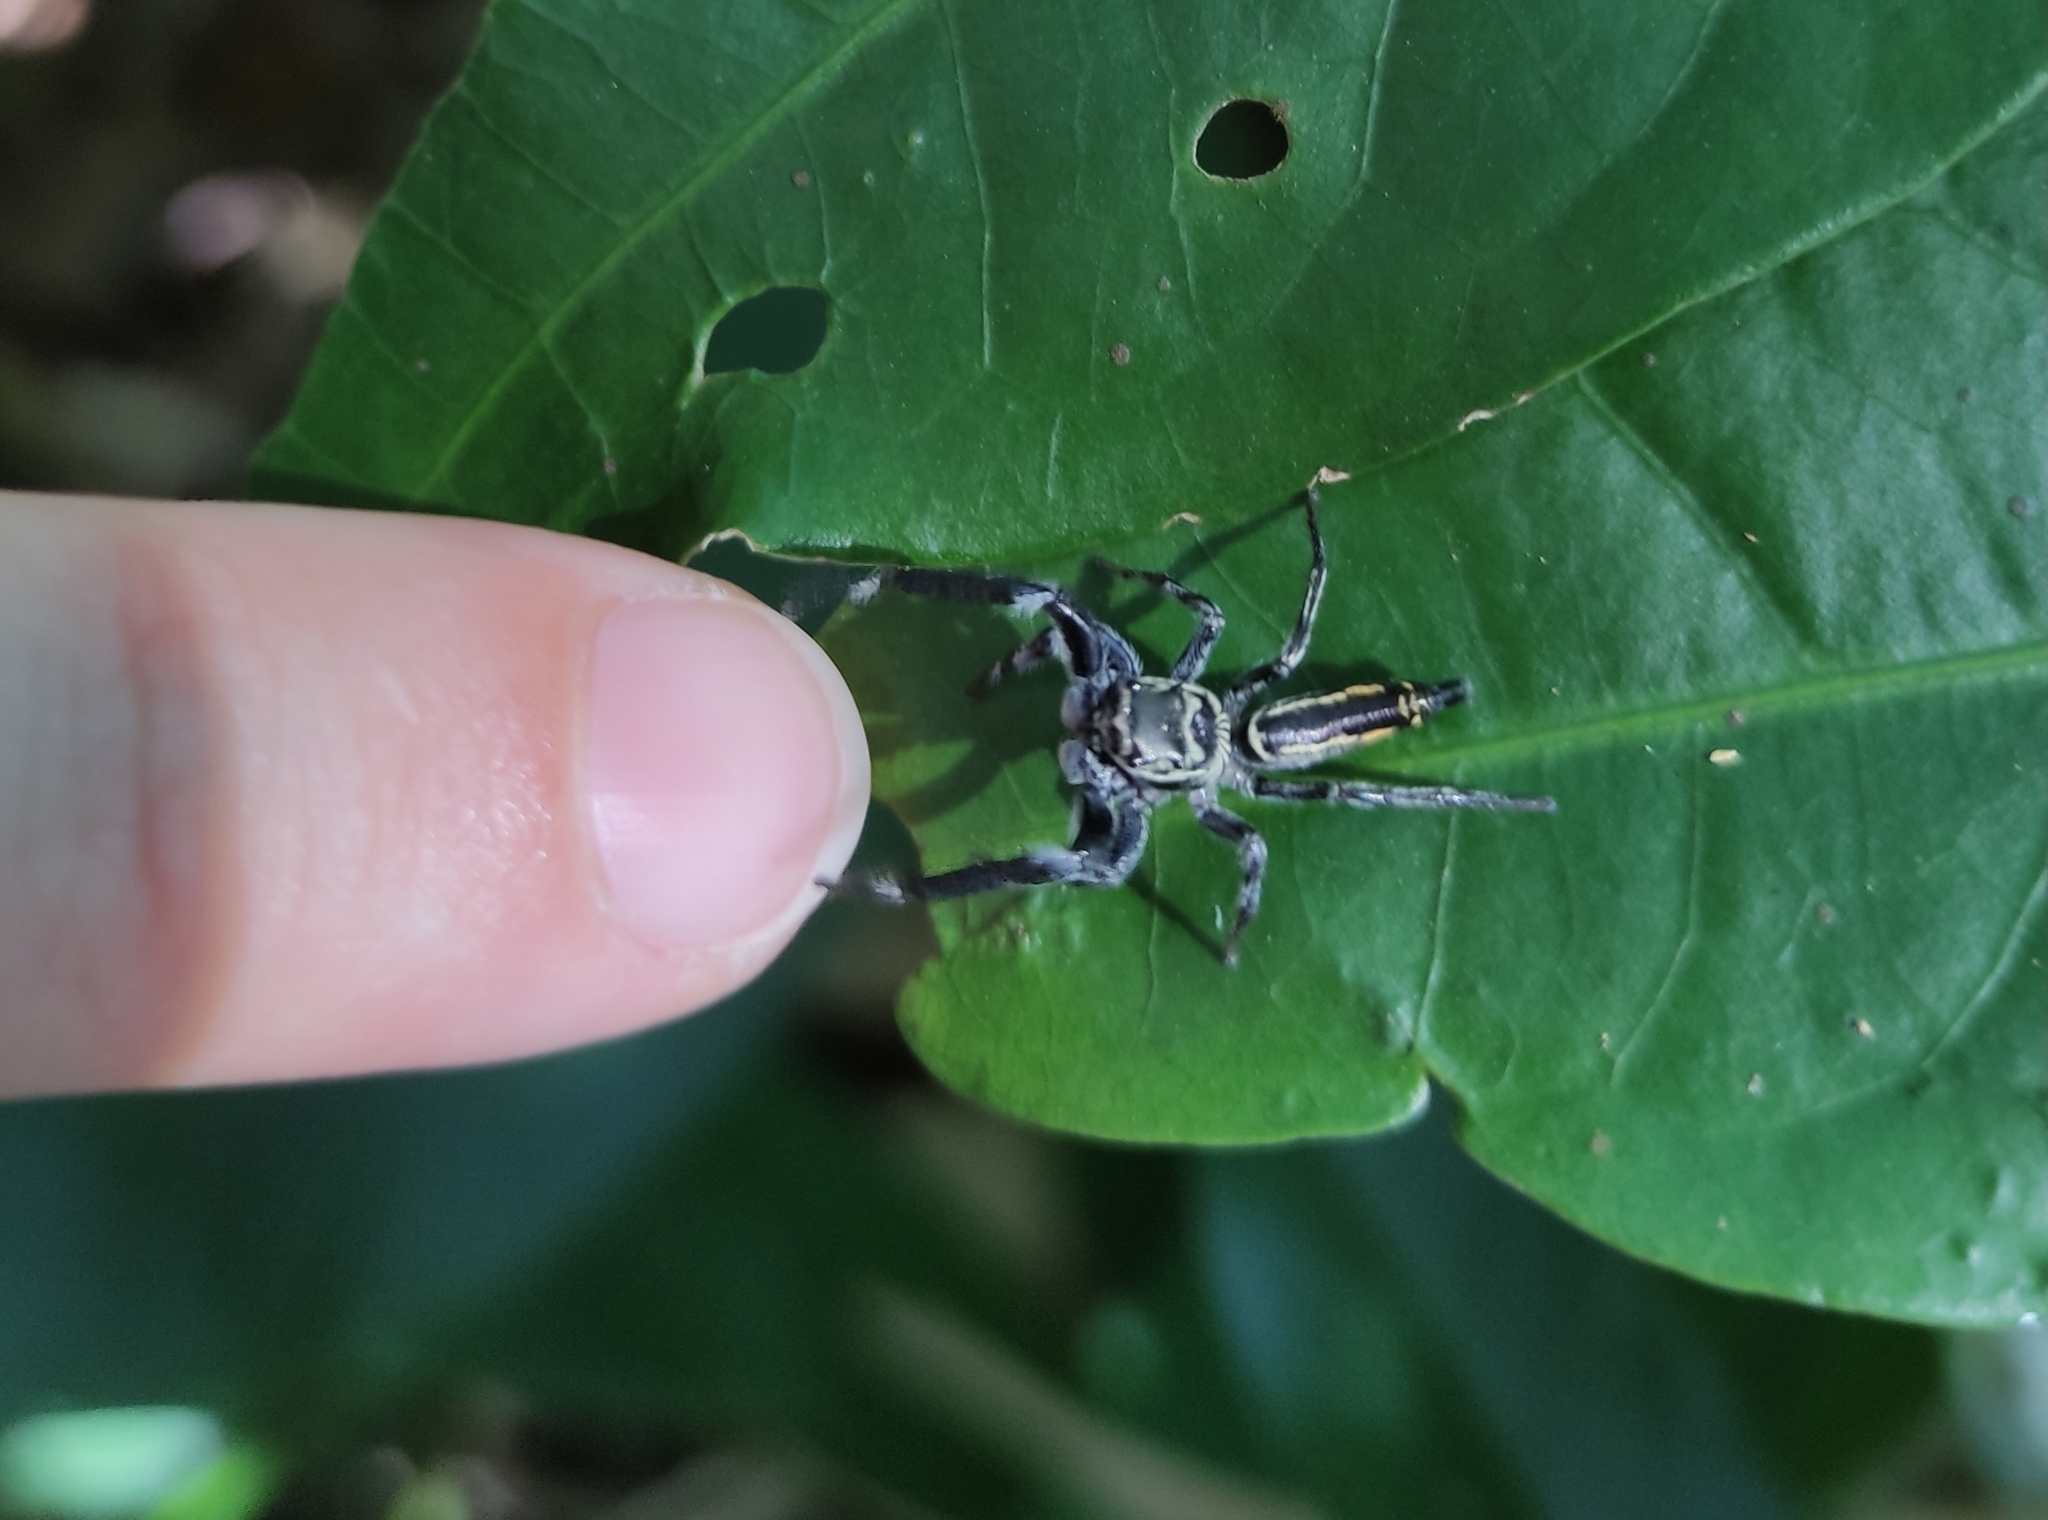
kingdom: Animalia
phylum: Arthropoda
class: Arachnida
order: Araneae
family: Salticidae
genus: Druzia
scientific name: Druzia flavostriata
